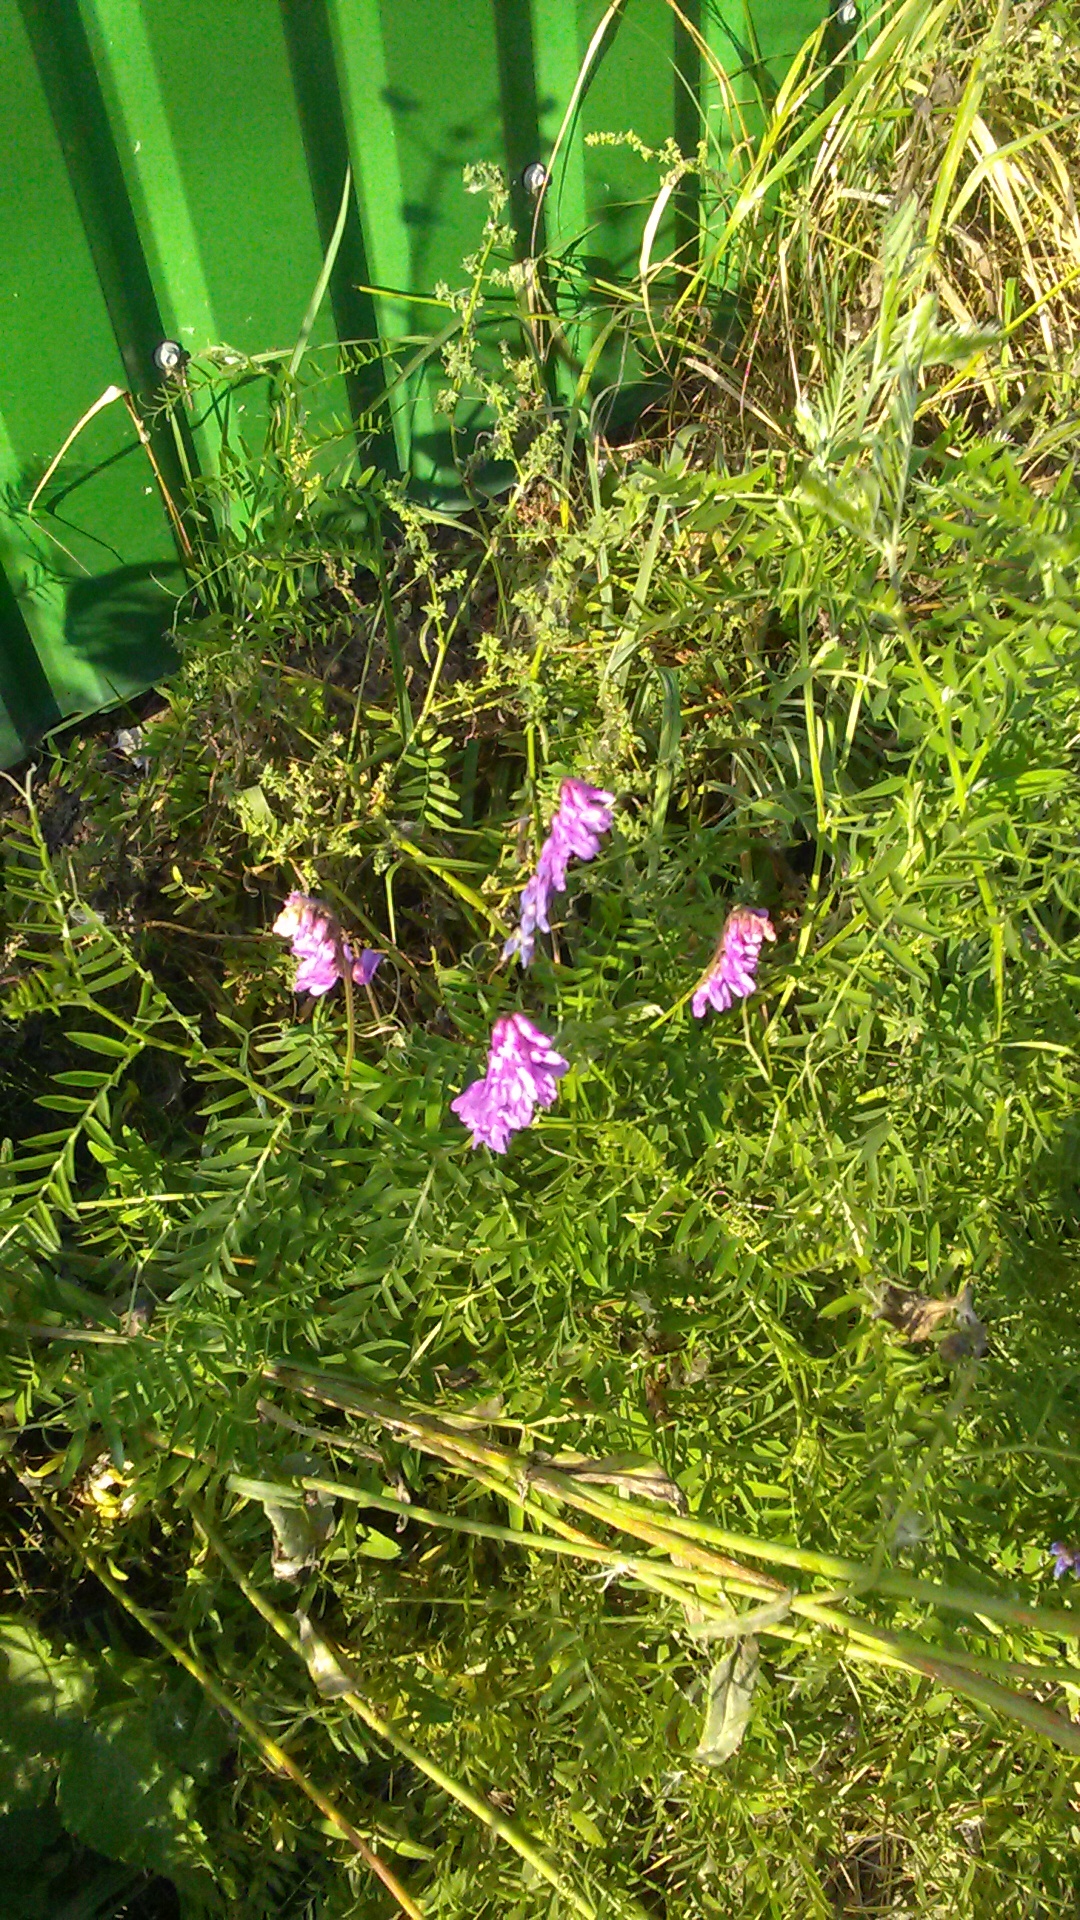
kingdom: Plantae
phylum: Tracheophyta
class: Magnoliopsida
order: Fabales
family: Fabaceae
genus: Vicia
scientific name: Vicia cracca
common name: Bird vetch
